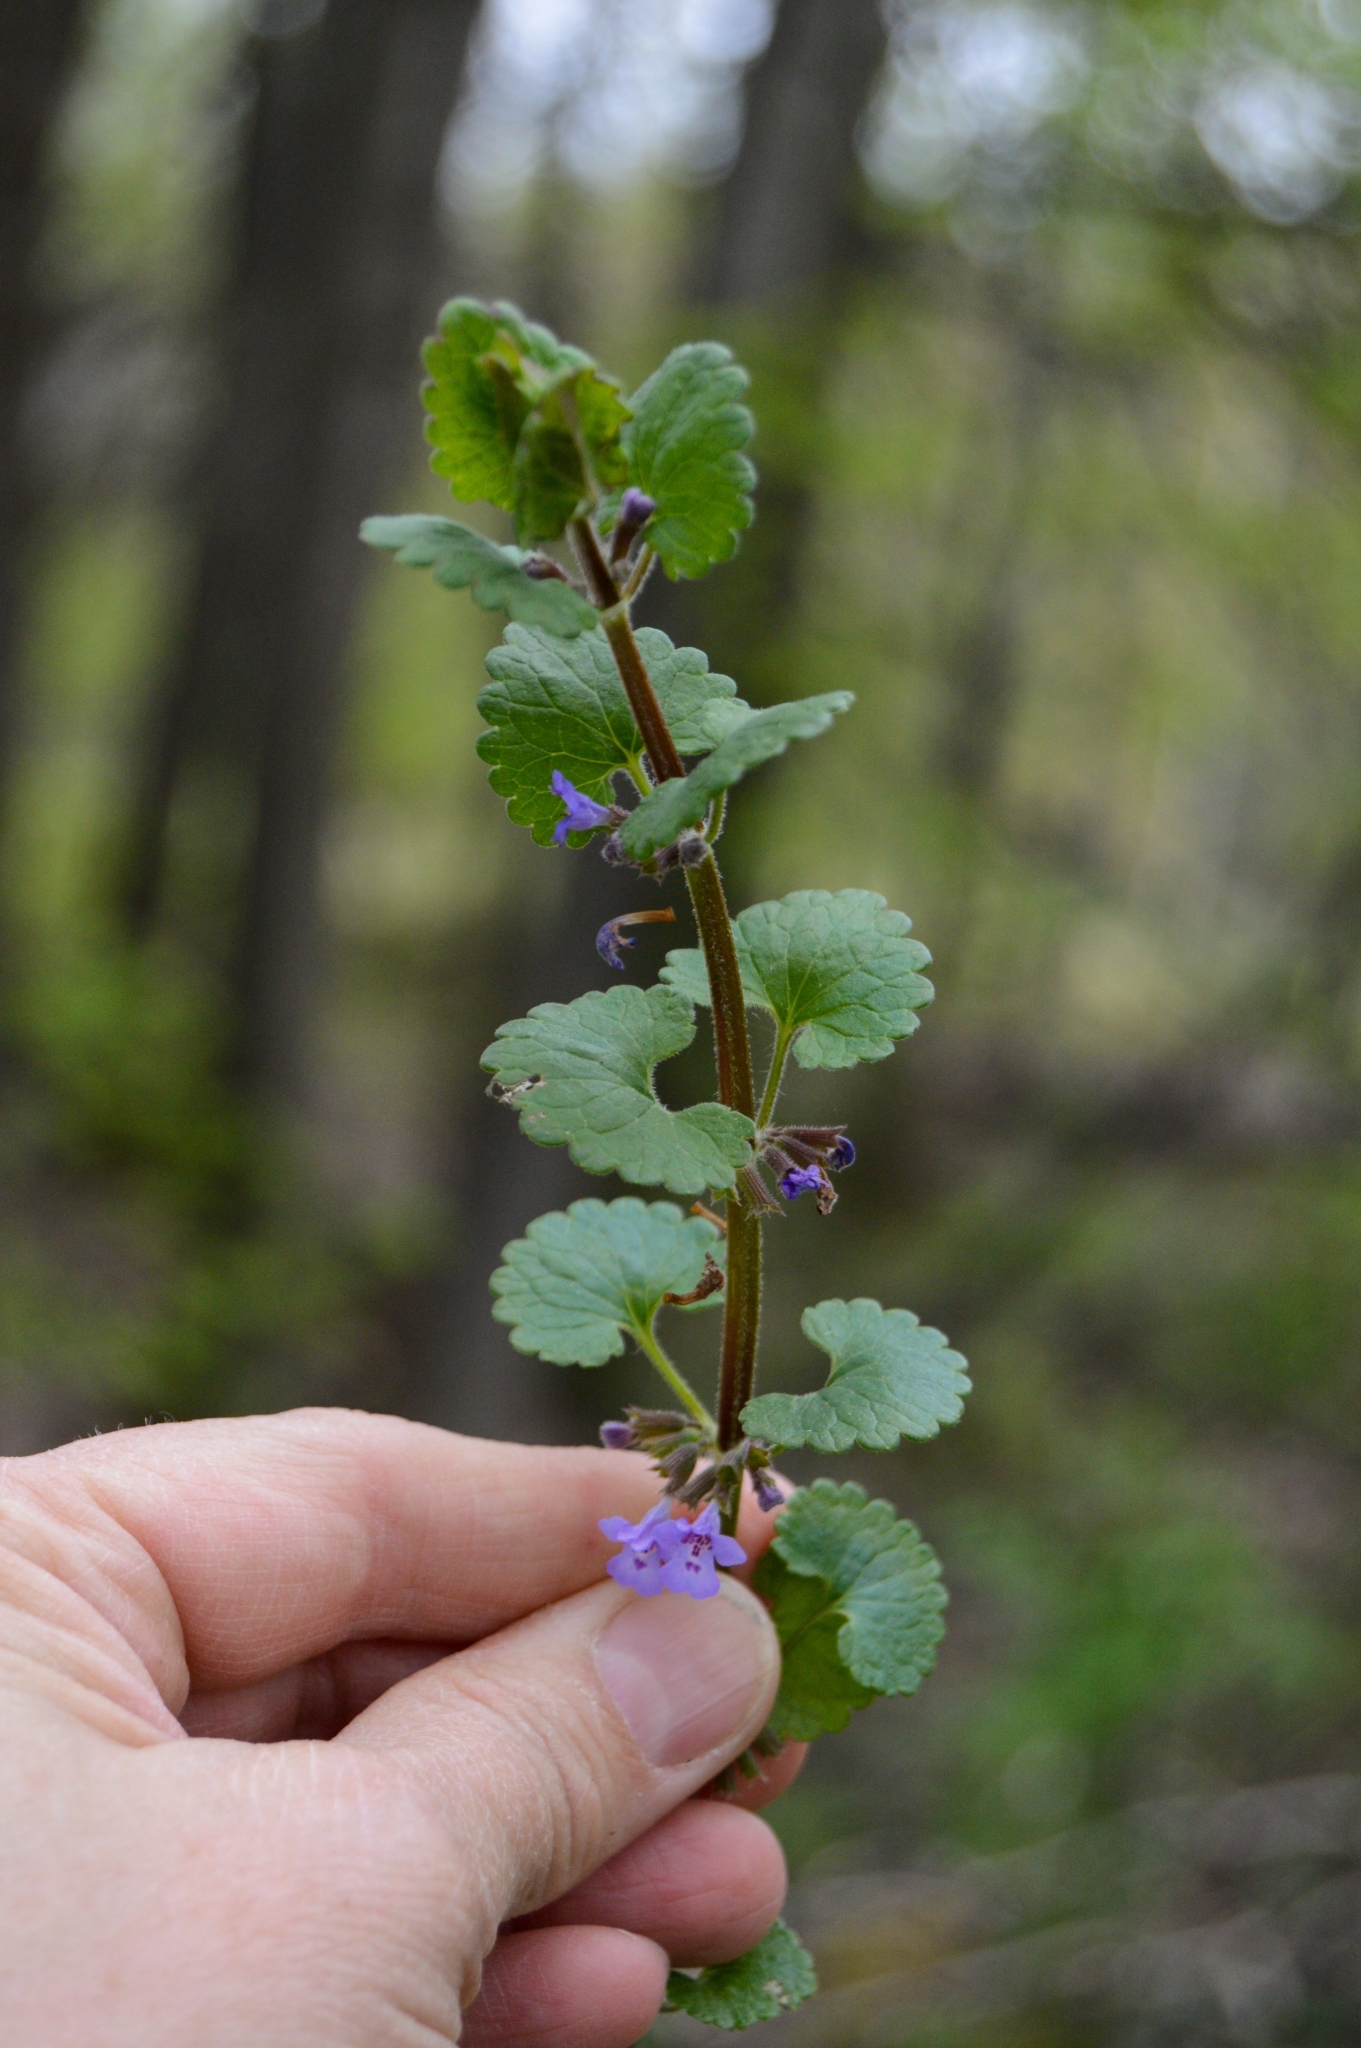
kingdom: Plantae
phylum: Tracheophyta
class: Magnoliopsida
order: Lamiales
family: Lamiaceae
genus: Glechoma
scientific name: Glechoma hederacea
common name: Ground ivy
